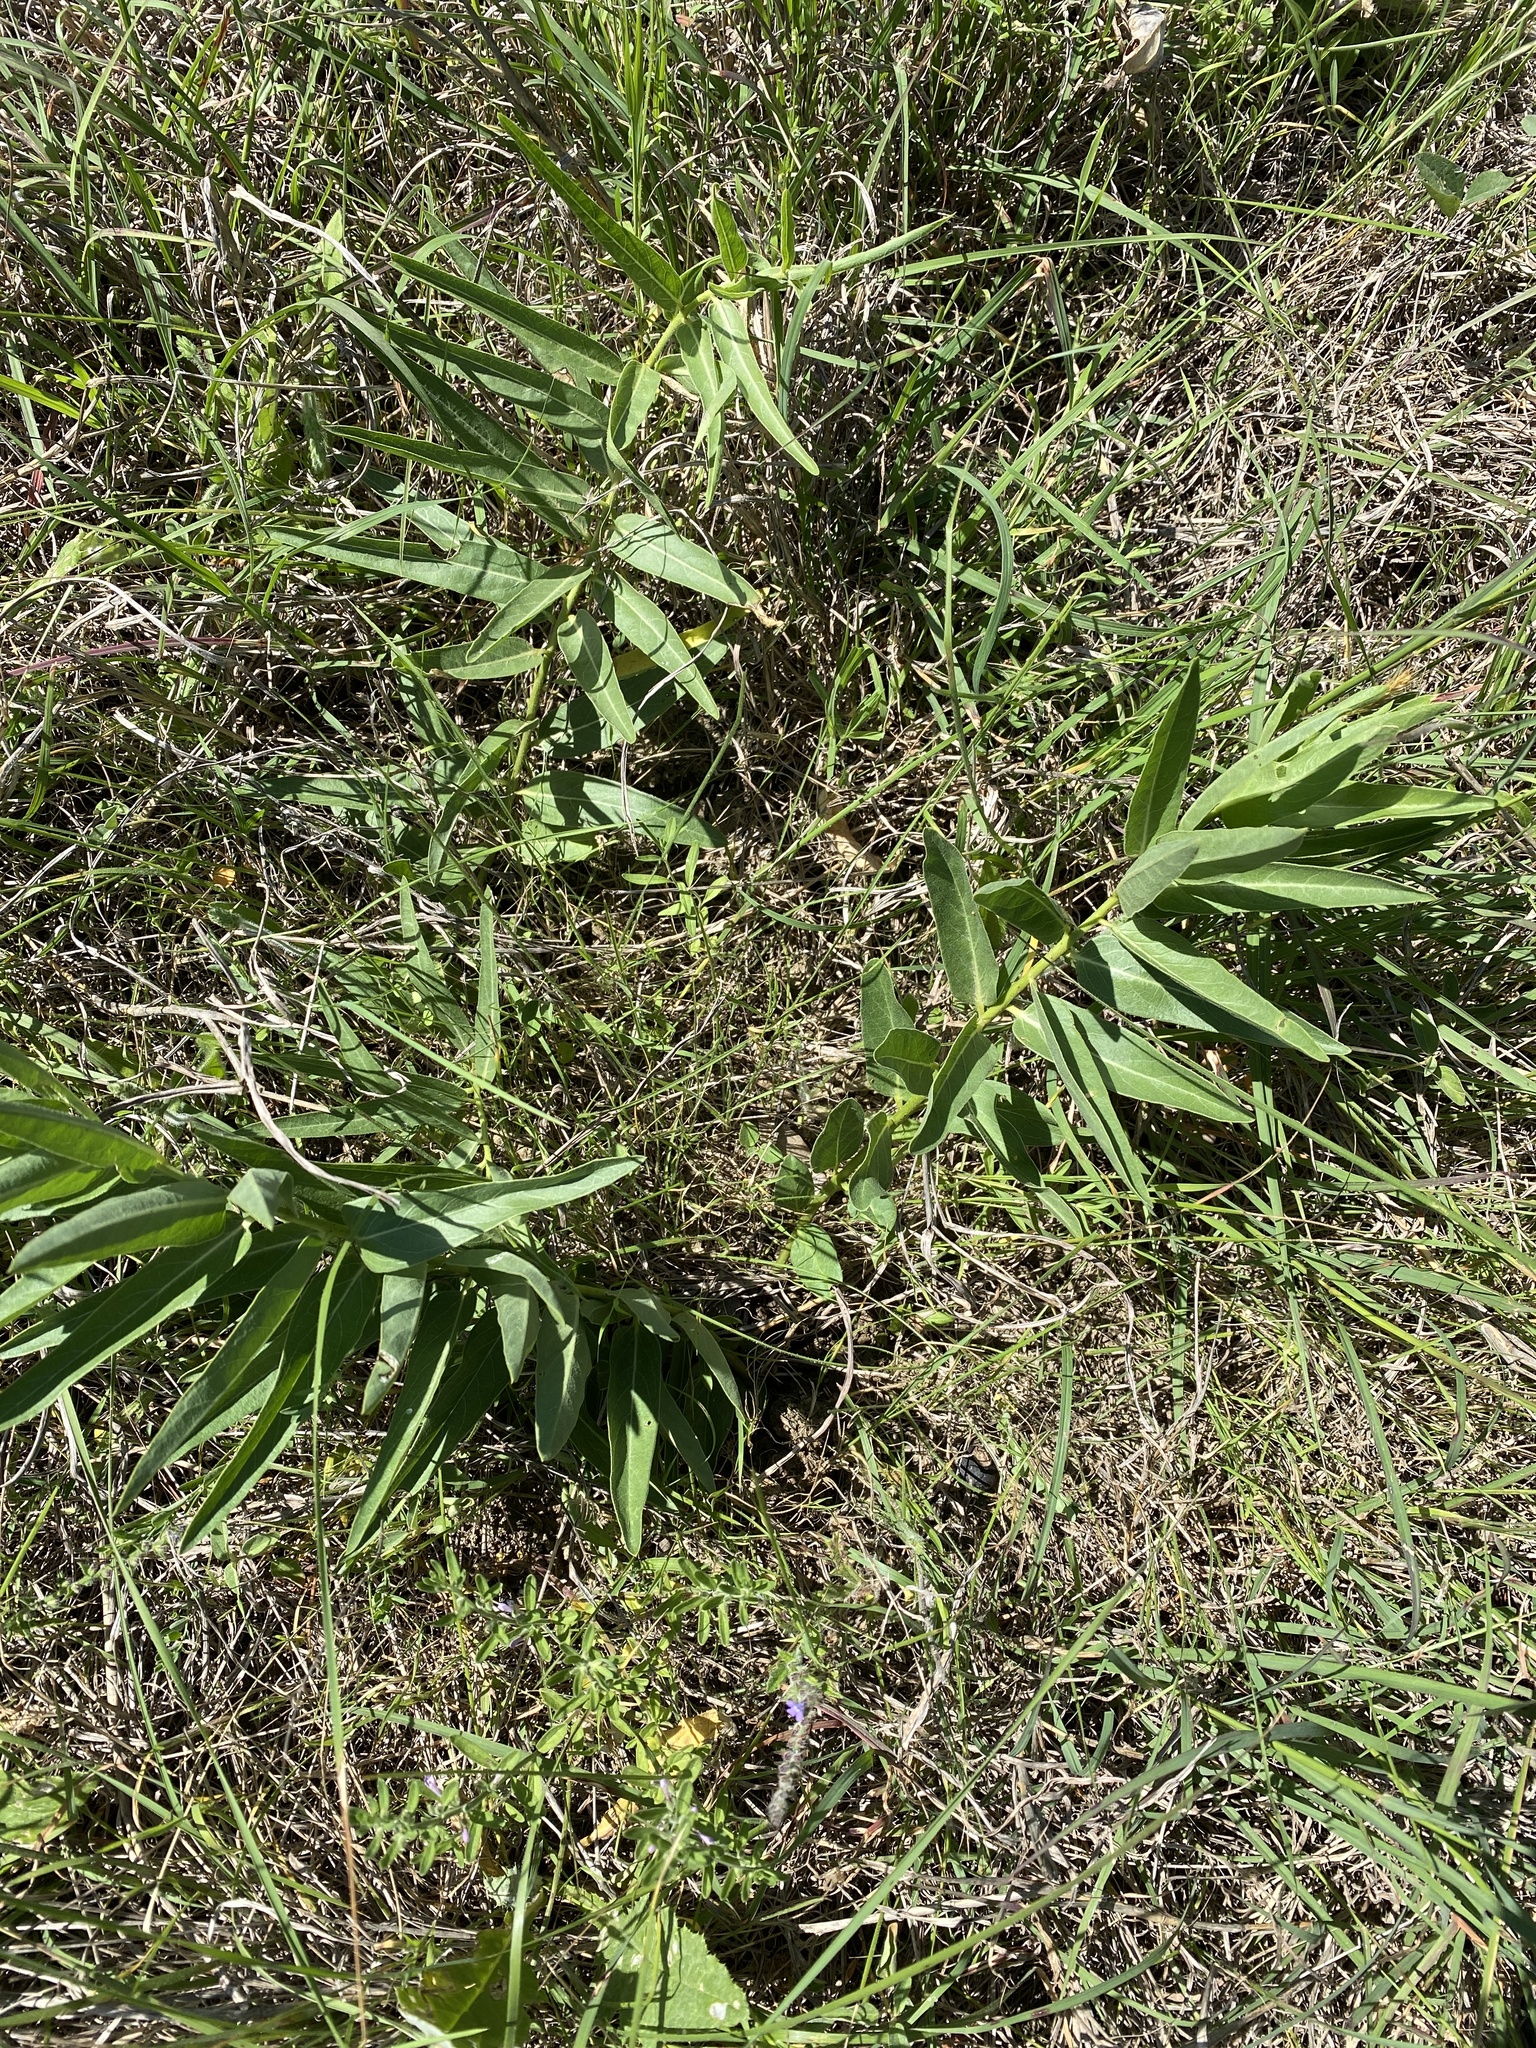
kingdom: Plantae
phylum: Tracheophyta
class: Magnoliopsida
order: Gentianales
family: Apocynaceae
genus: Asclepias
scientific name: Asclepias asperula
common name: Antelope horns
